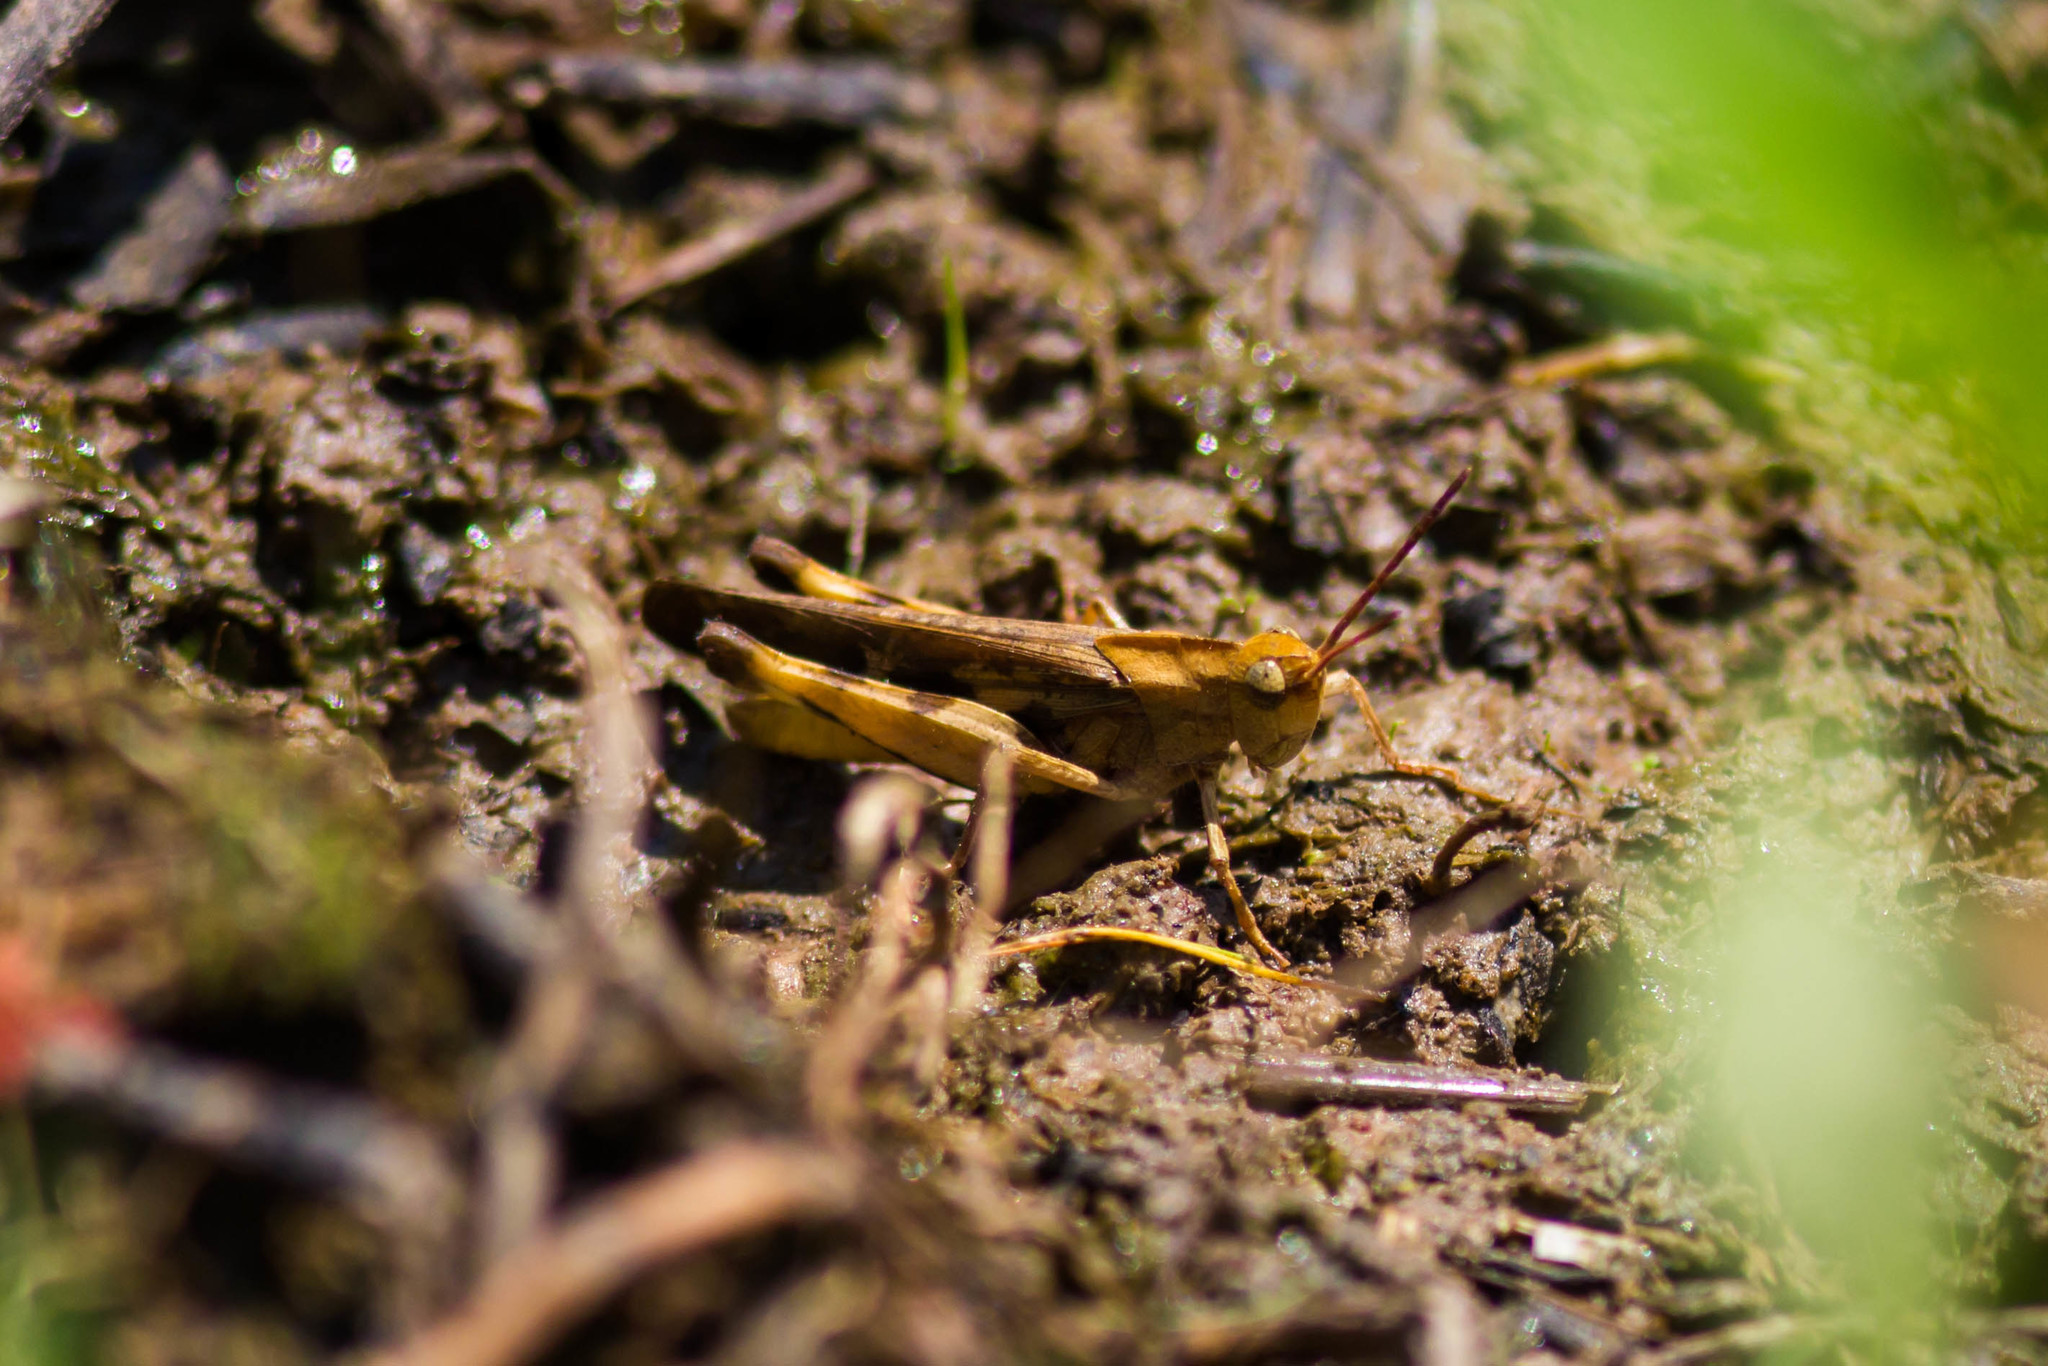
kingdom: Animalia
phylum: Arthropoda
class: Insecta
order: Orthoptera
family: Acrididae
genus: Chortophaga
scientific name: Chortophaga viridifasciata
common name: Green-striped grasshopper
